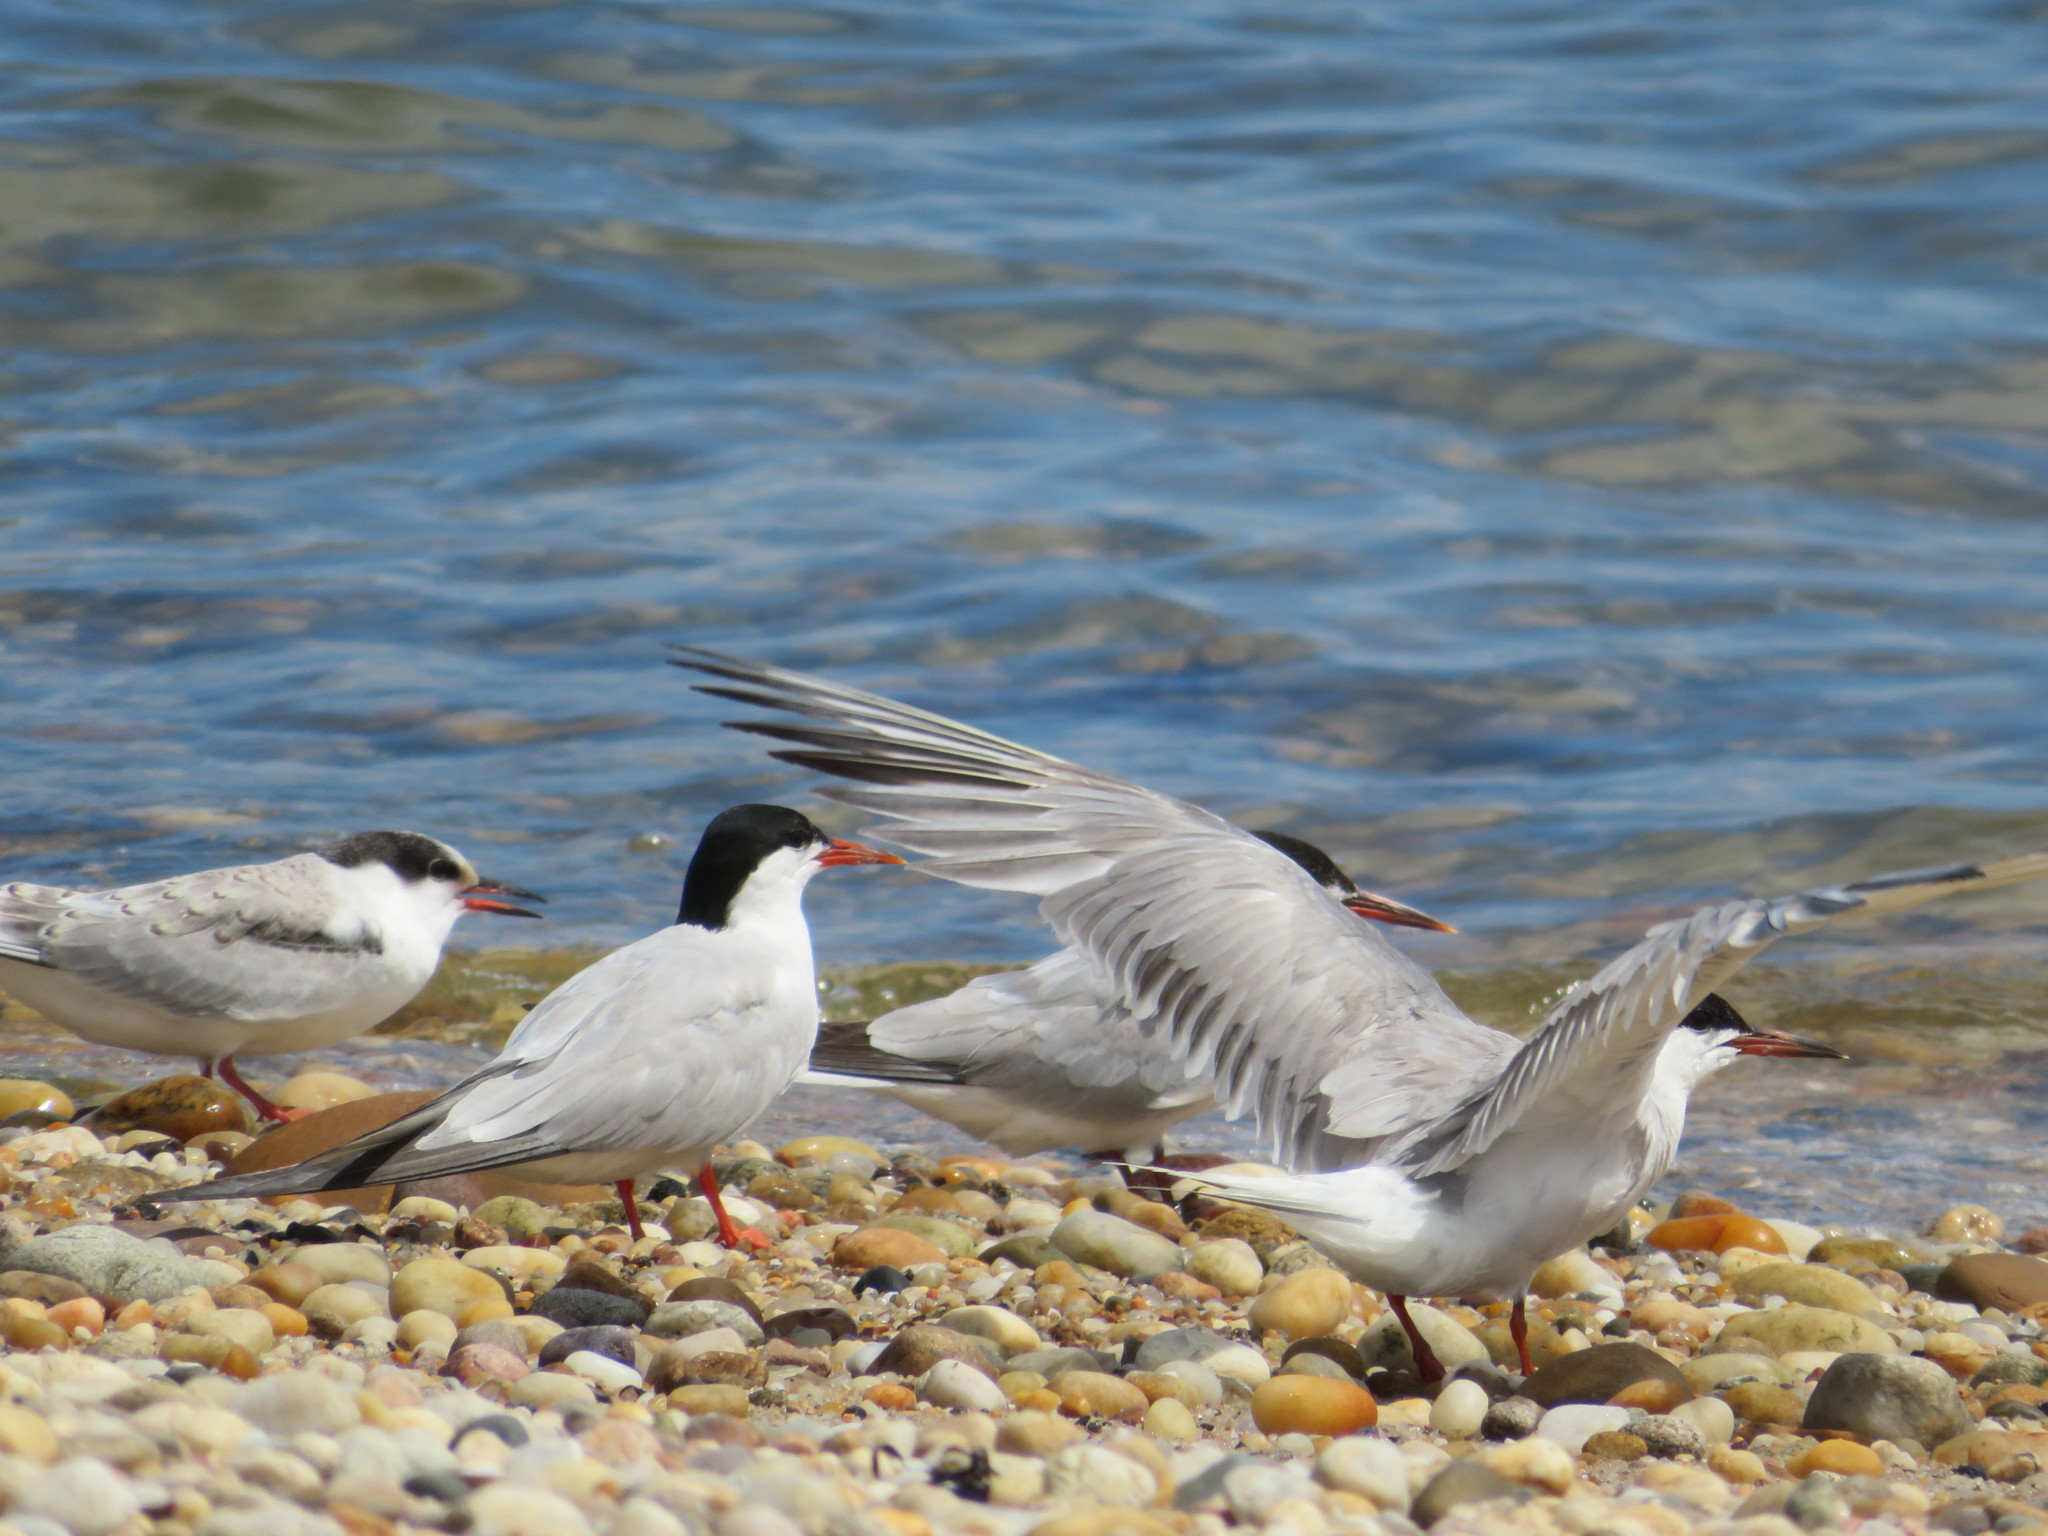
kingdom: Animalia
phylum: Chordata
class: Aves
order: Charadriiformes
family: Laridae
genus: Sterna
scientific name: Sterna hirundo
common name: Common tern
